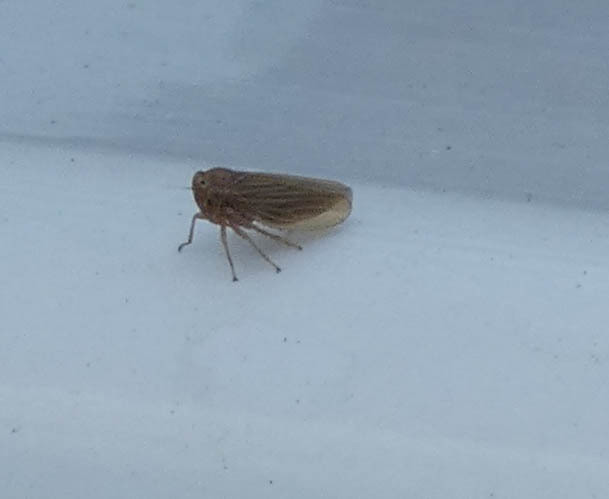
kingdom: Animalia
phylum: Arthropoda
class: Insecta
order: Hemiptera
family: Cicadellidae
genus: Agallia
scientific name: Agallia
